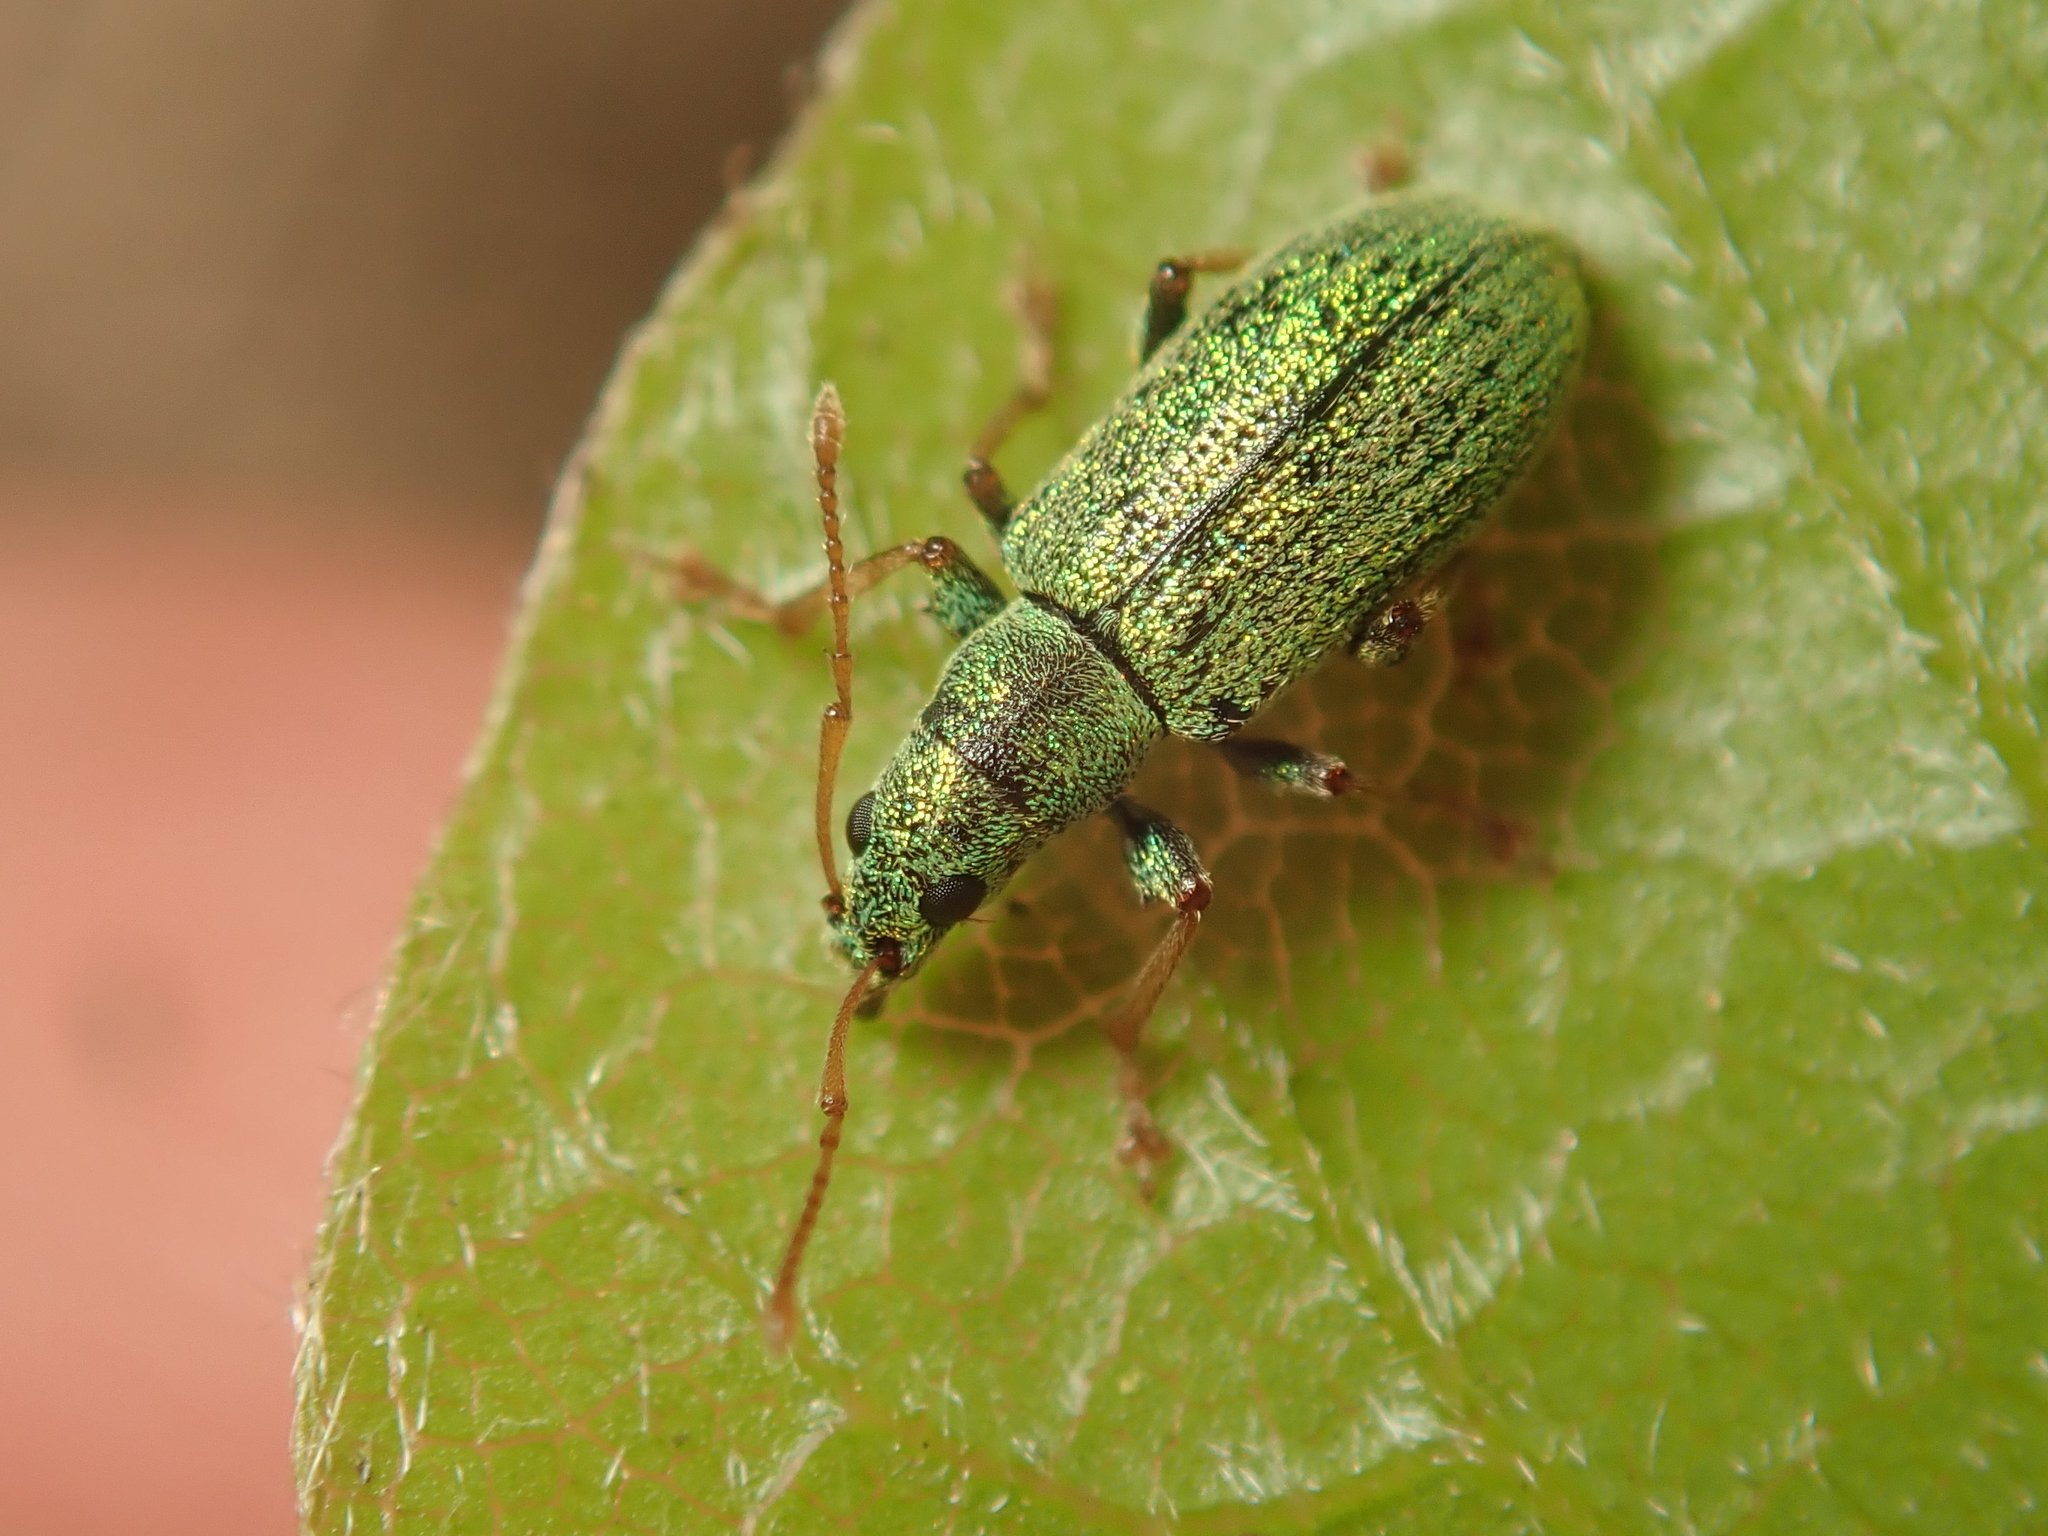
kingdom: Animalia
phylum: Arthropoda
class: Insecta
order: Coleoptera
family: Curculionidae
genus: Phyllobius
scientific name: Phyllobius argentatus
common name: Silver-green leaf weevil
